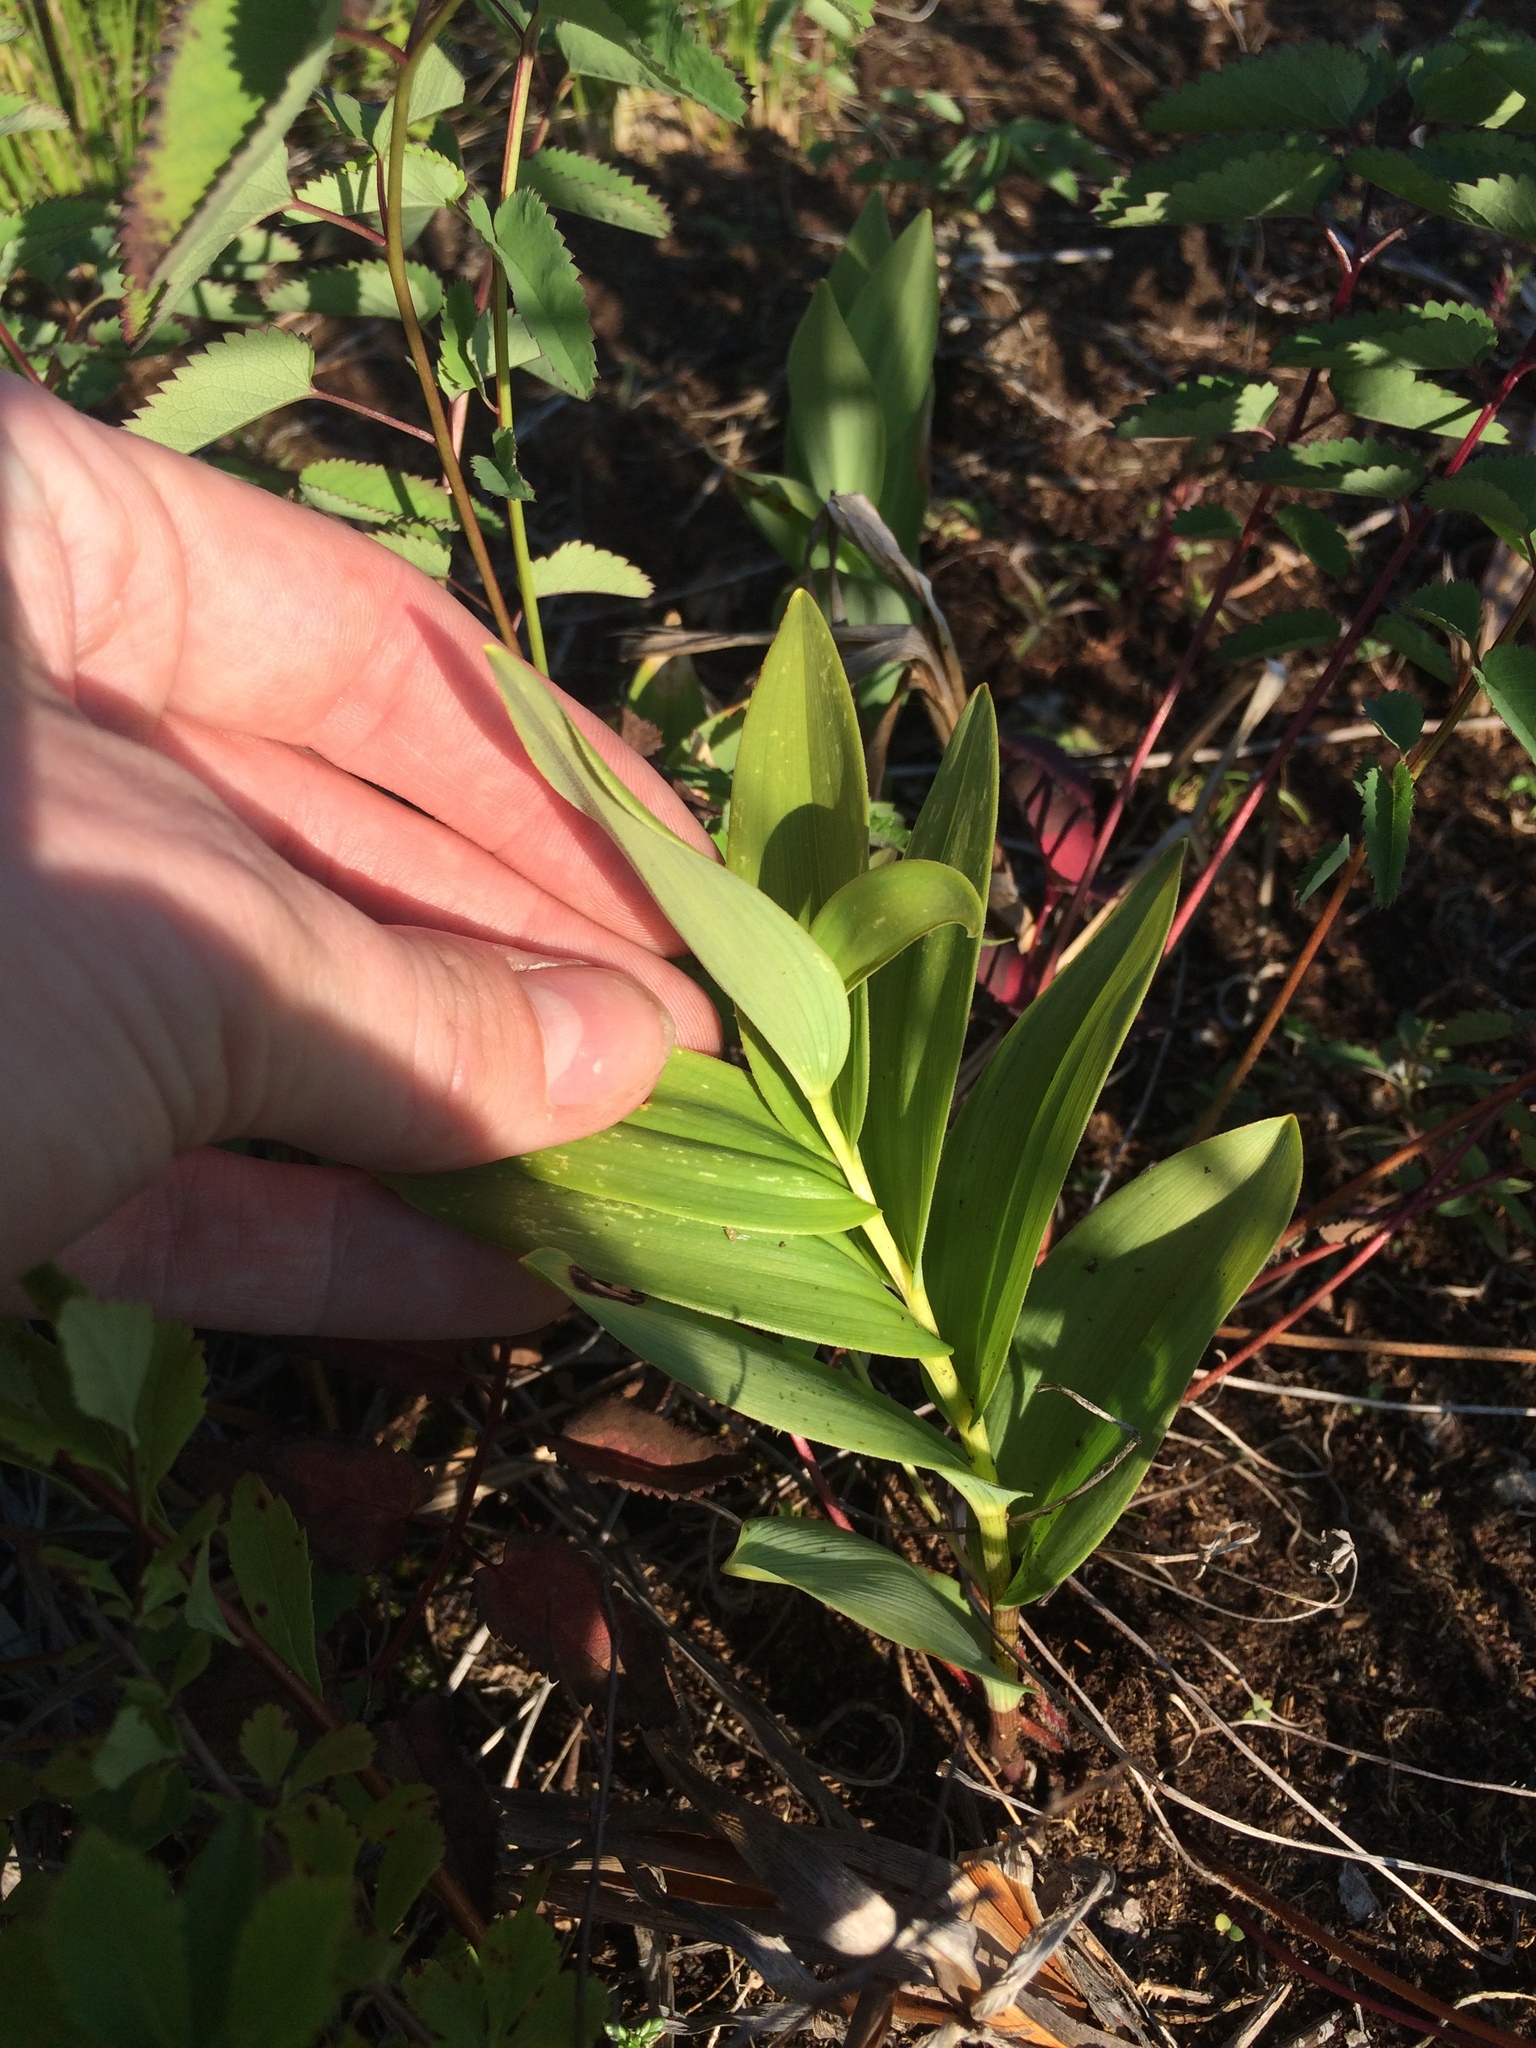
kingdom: Plantae
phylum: Tracheophyta
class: Liliopsida
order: Asparagales
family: Asparagaceae
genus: Maianthemum
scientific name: Maianthemum stellatum
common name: Little false solomon's seal
